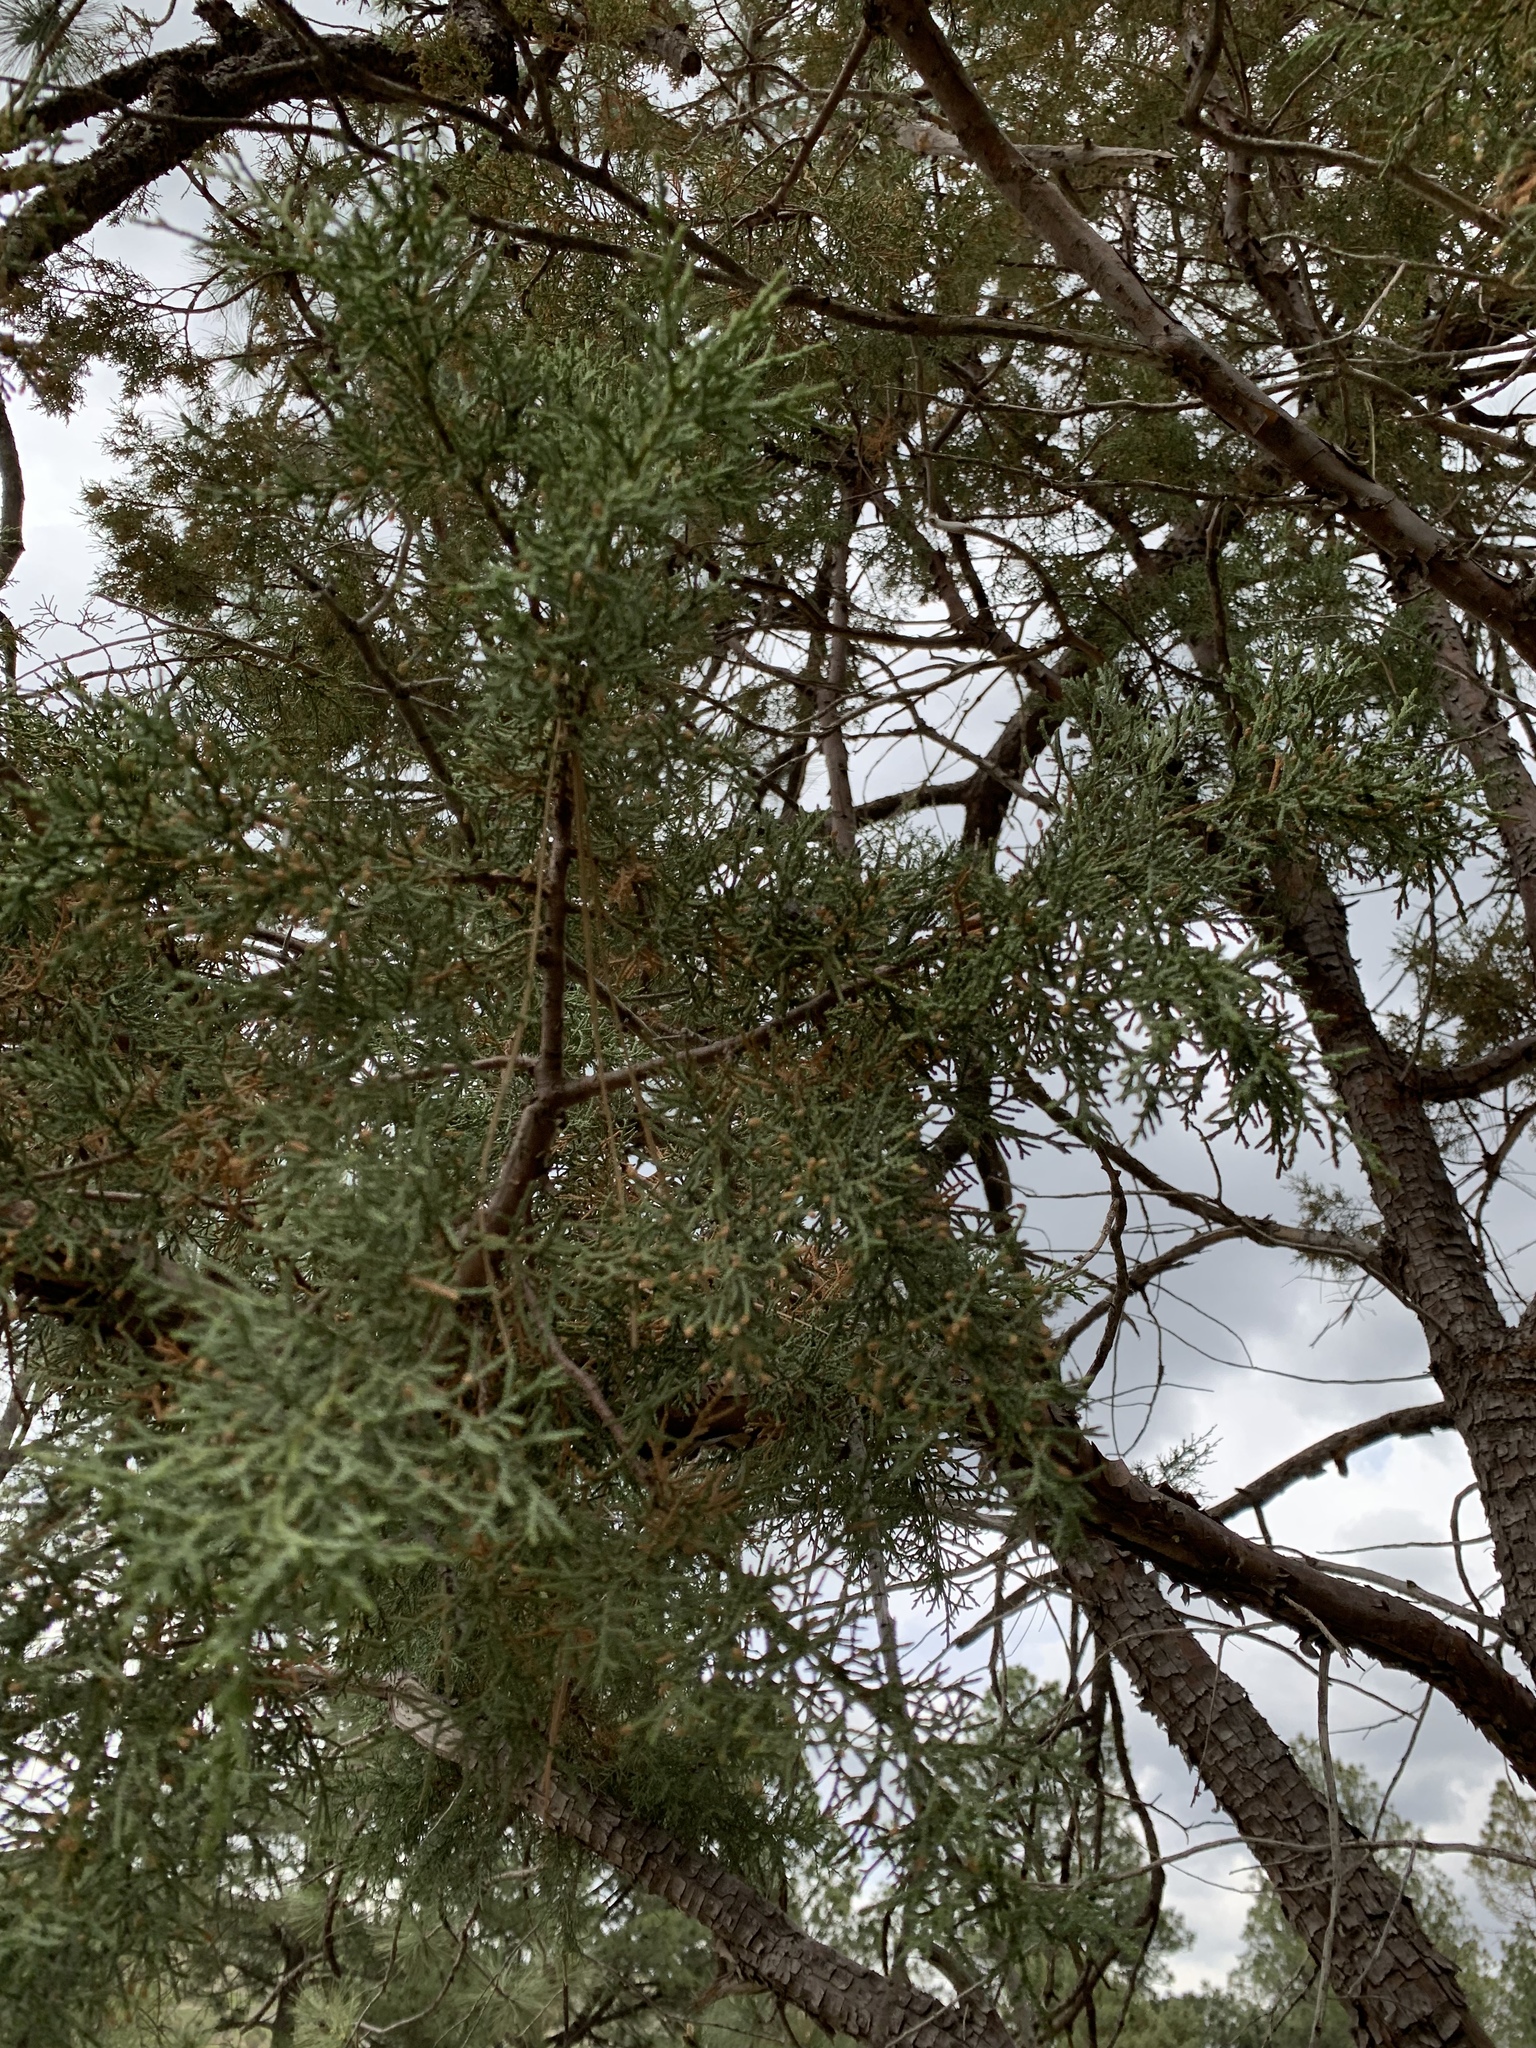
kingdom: Plantae
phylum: Tracheophyta
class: Pinopsida
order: Pinales
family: Cupressaceae
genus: Juniperus
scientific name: Juniperus deppeana
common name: Alligator juniper
